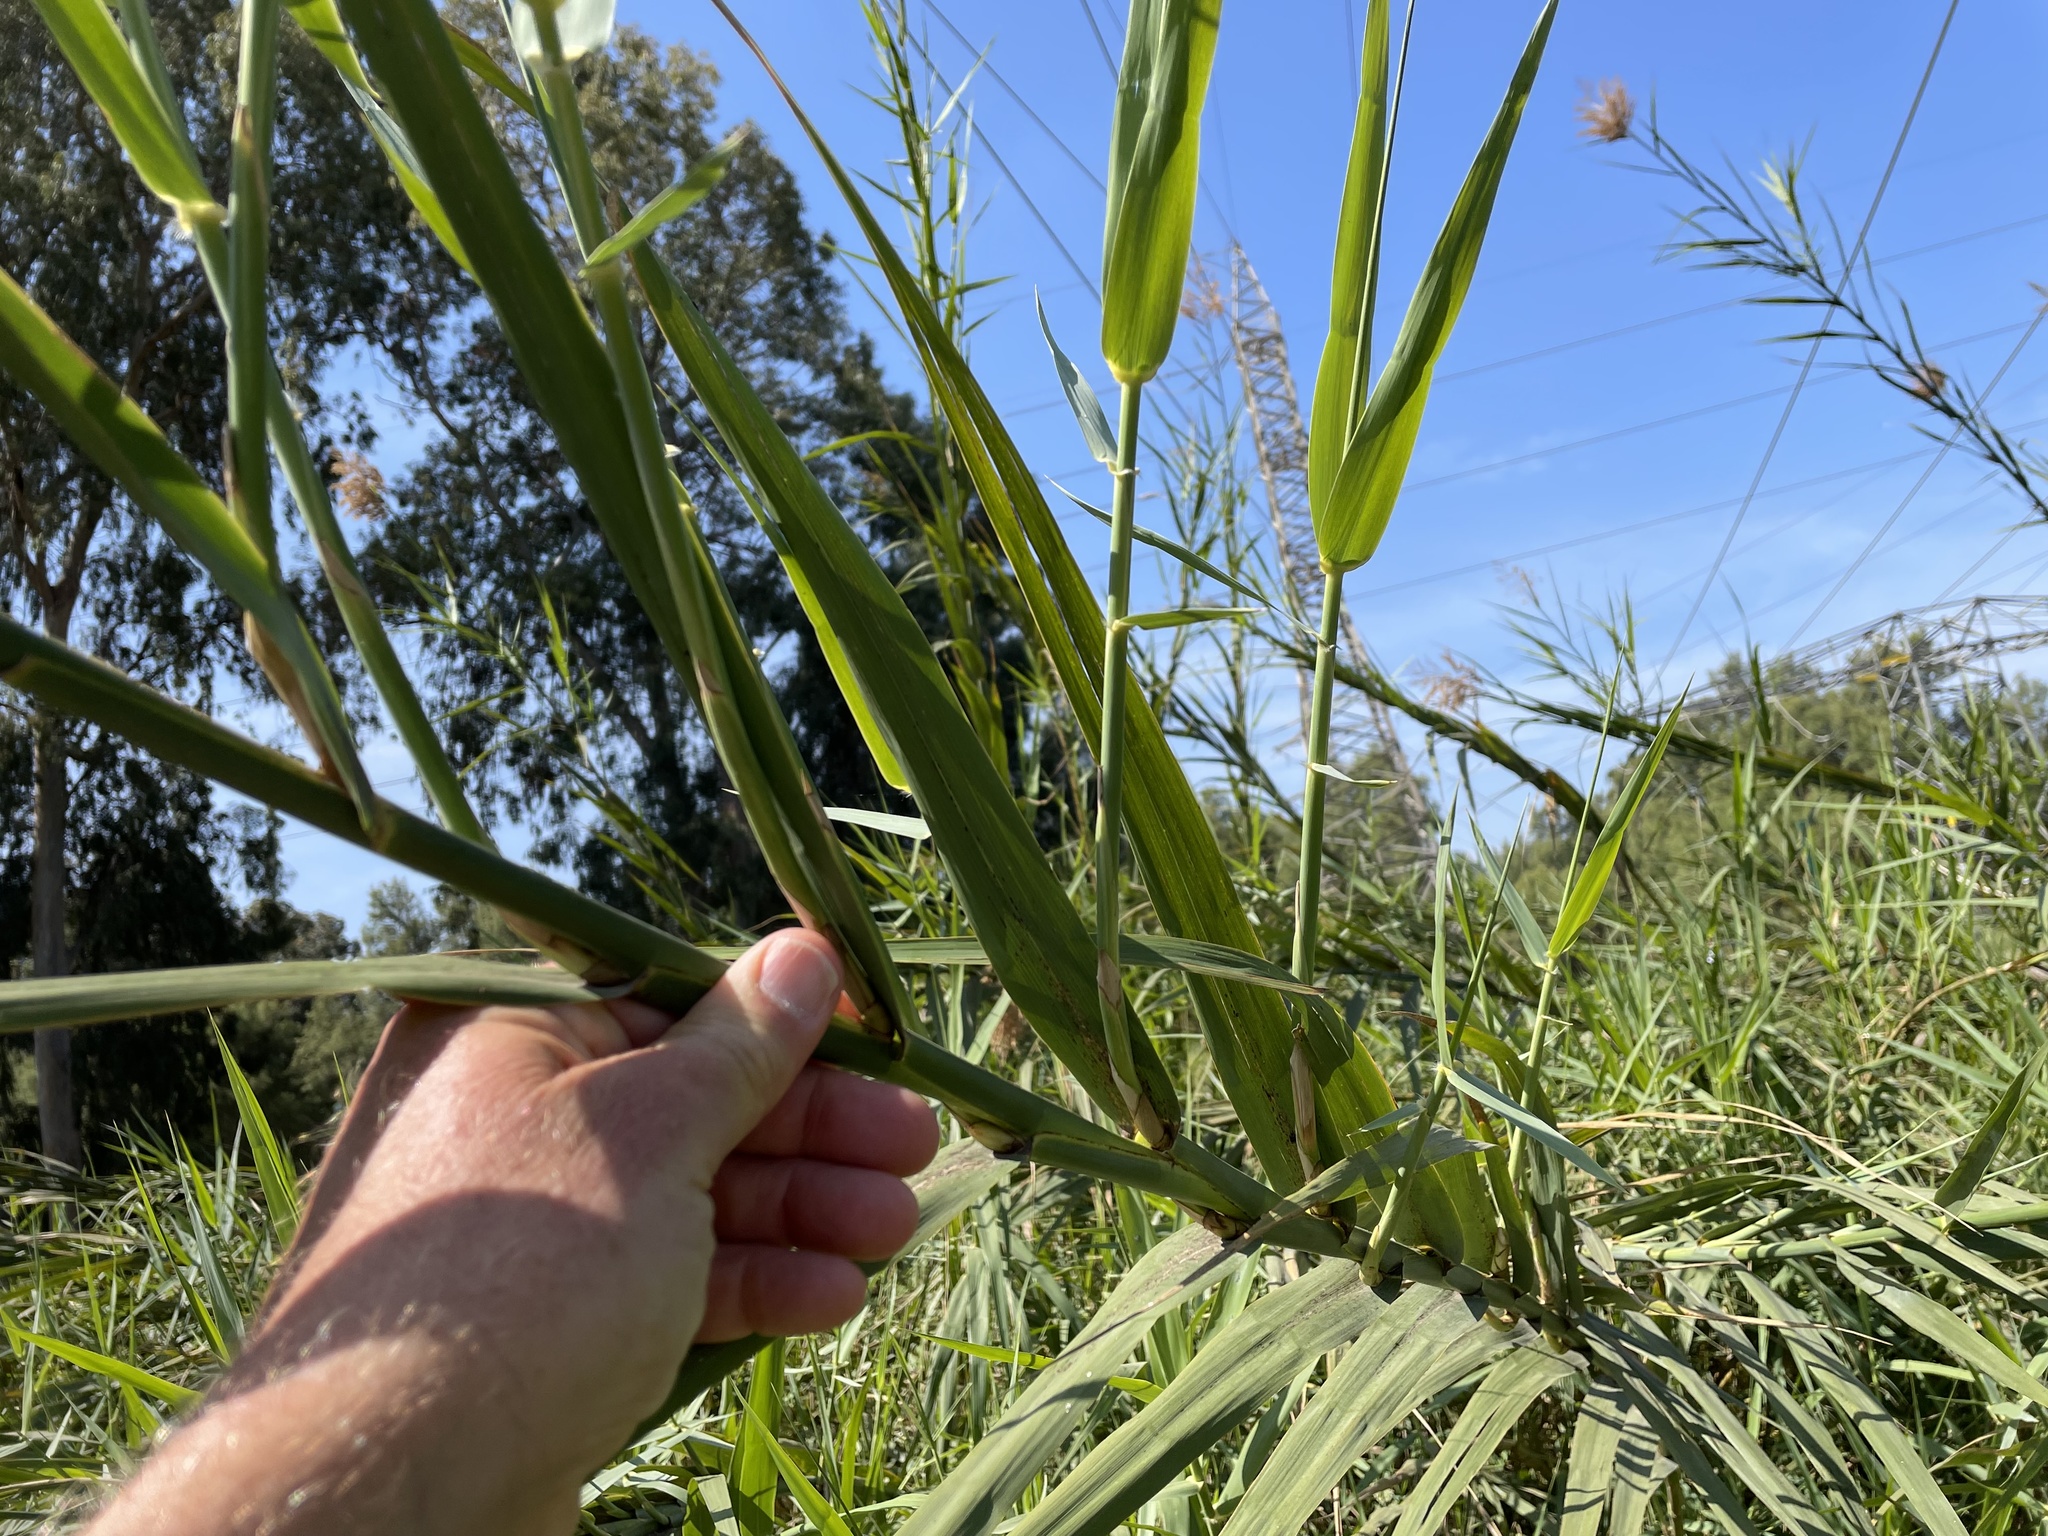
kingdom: Plantae
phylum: Tracheophyta
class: Liliopsida
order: Poales
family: Poaceae
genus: Arundo
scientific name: Arundo donax
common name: Giant reed
